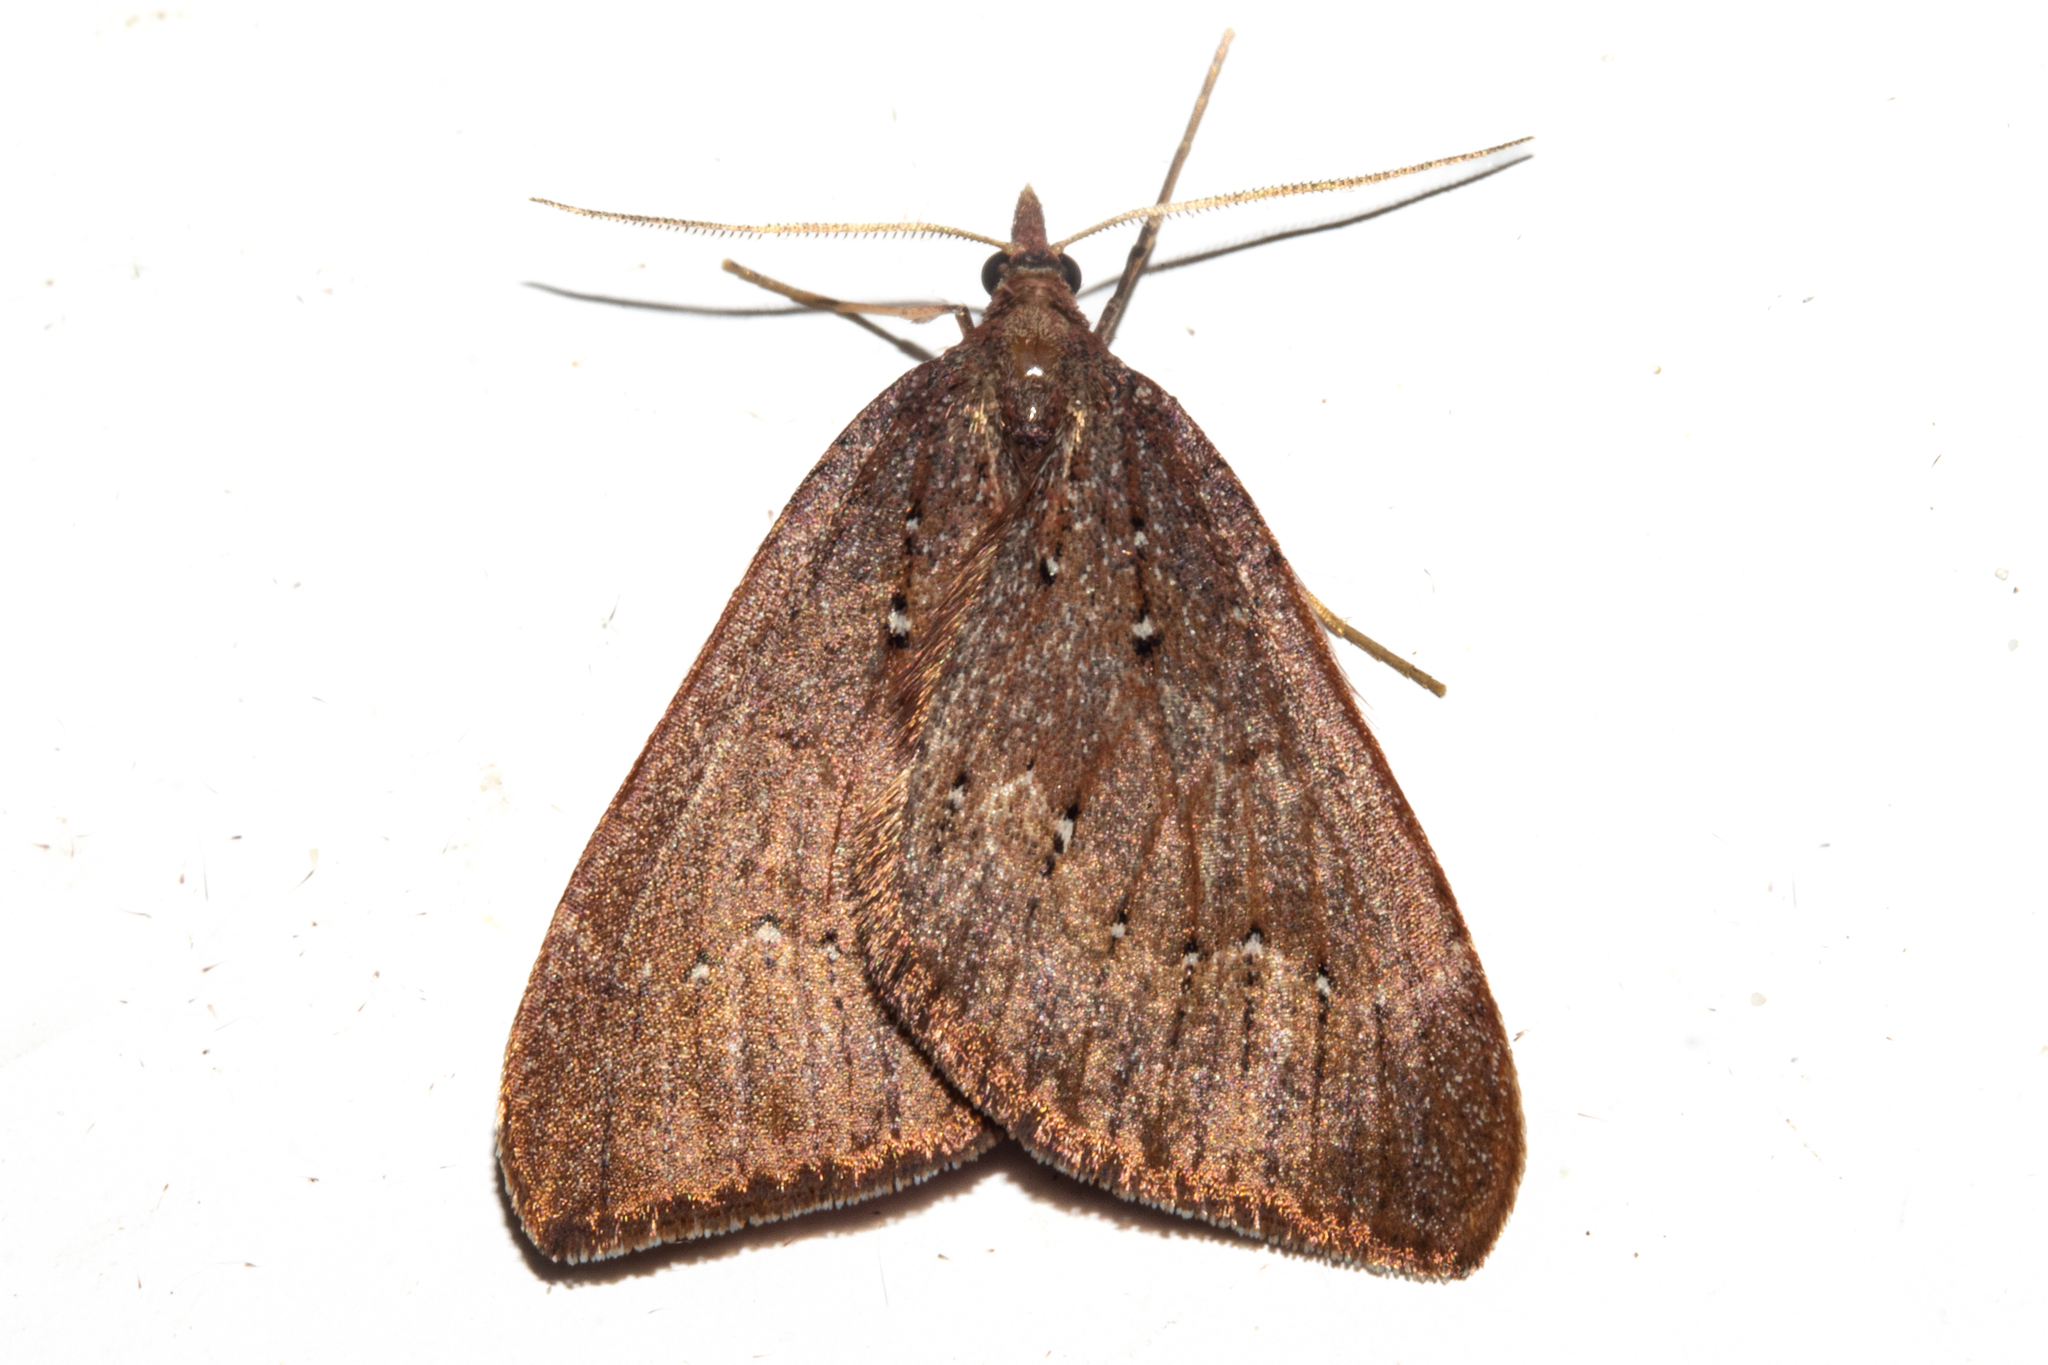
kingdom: Animalia
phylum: Arthropoda
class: Insecta
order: Lepidoptera
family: Geometridae
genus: Xanthorhoe
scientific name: Xanthorhoe occulta
